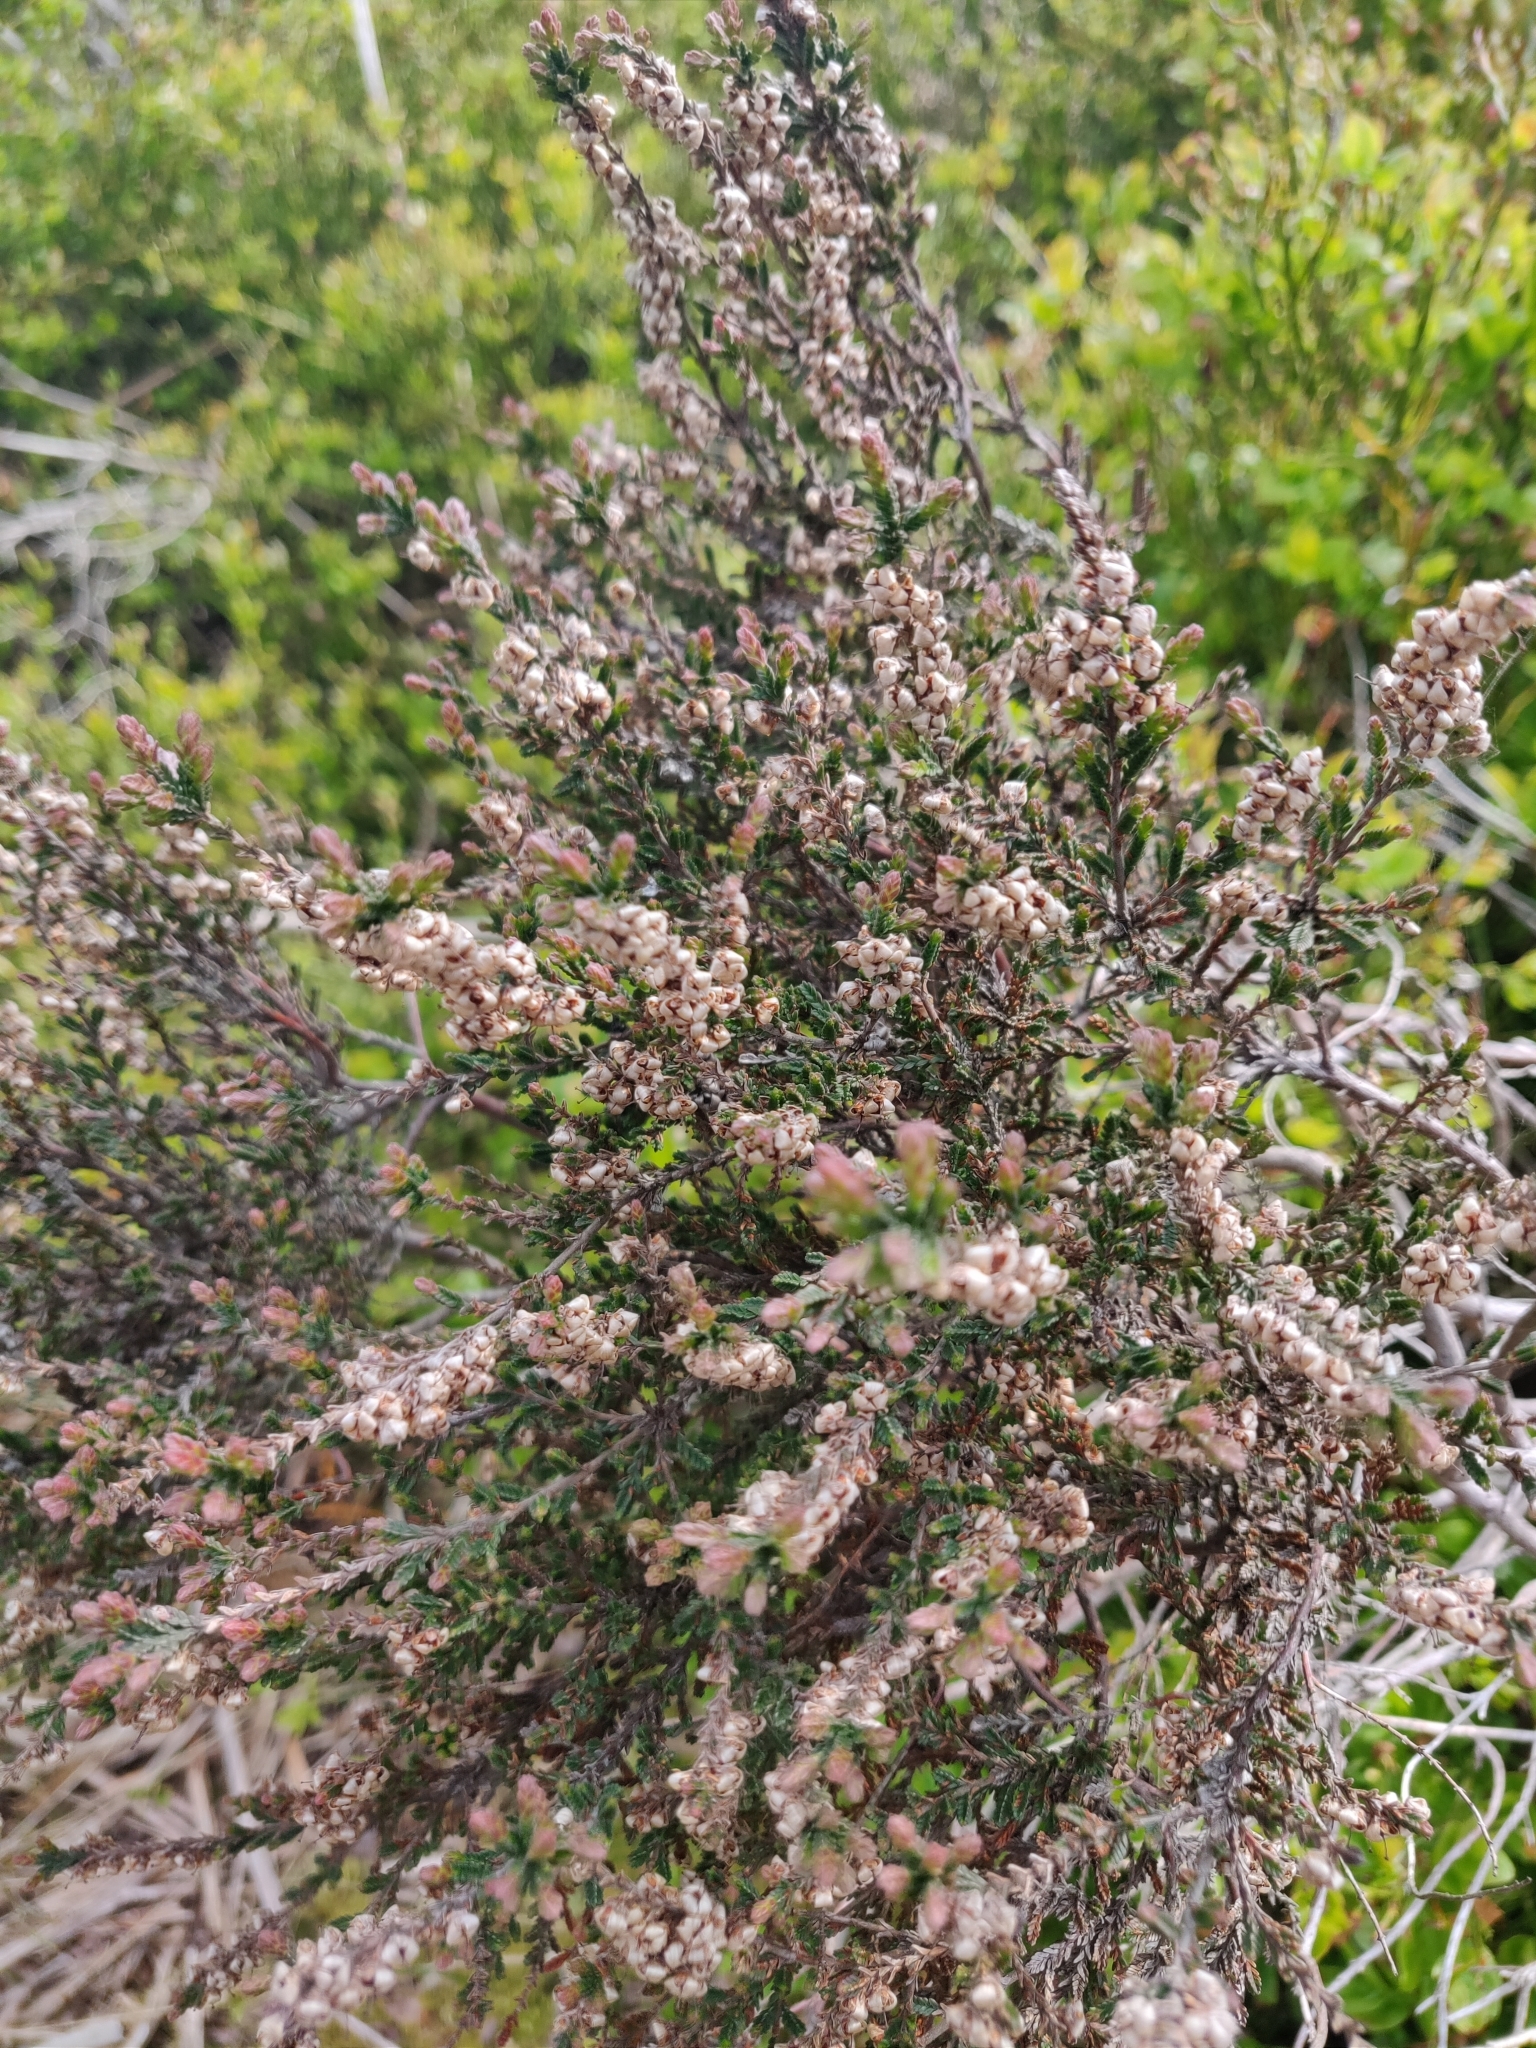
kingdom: Plantae
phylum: Tracheophyta
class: Magnoliopsida
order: Ericales
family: Ericaceae
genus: Calluna
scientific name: Calluna vulgaris
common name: Heather
